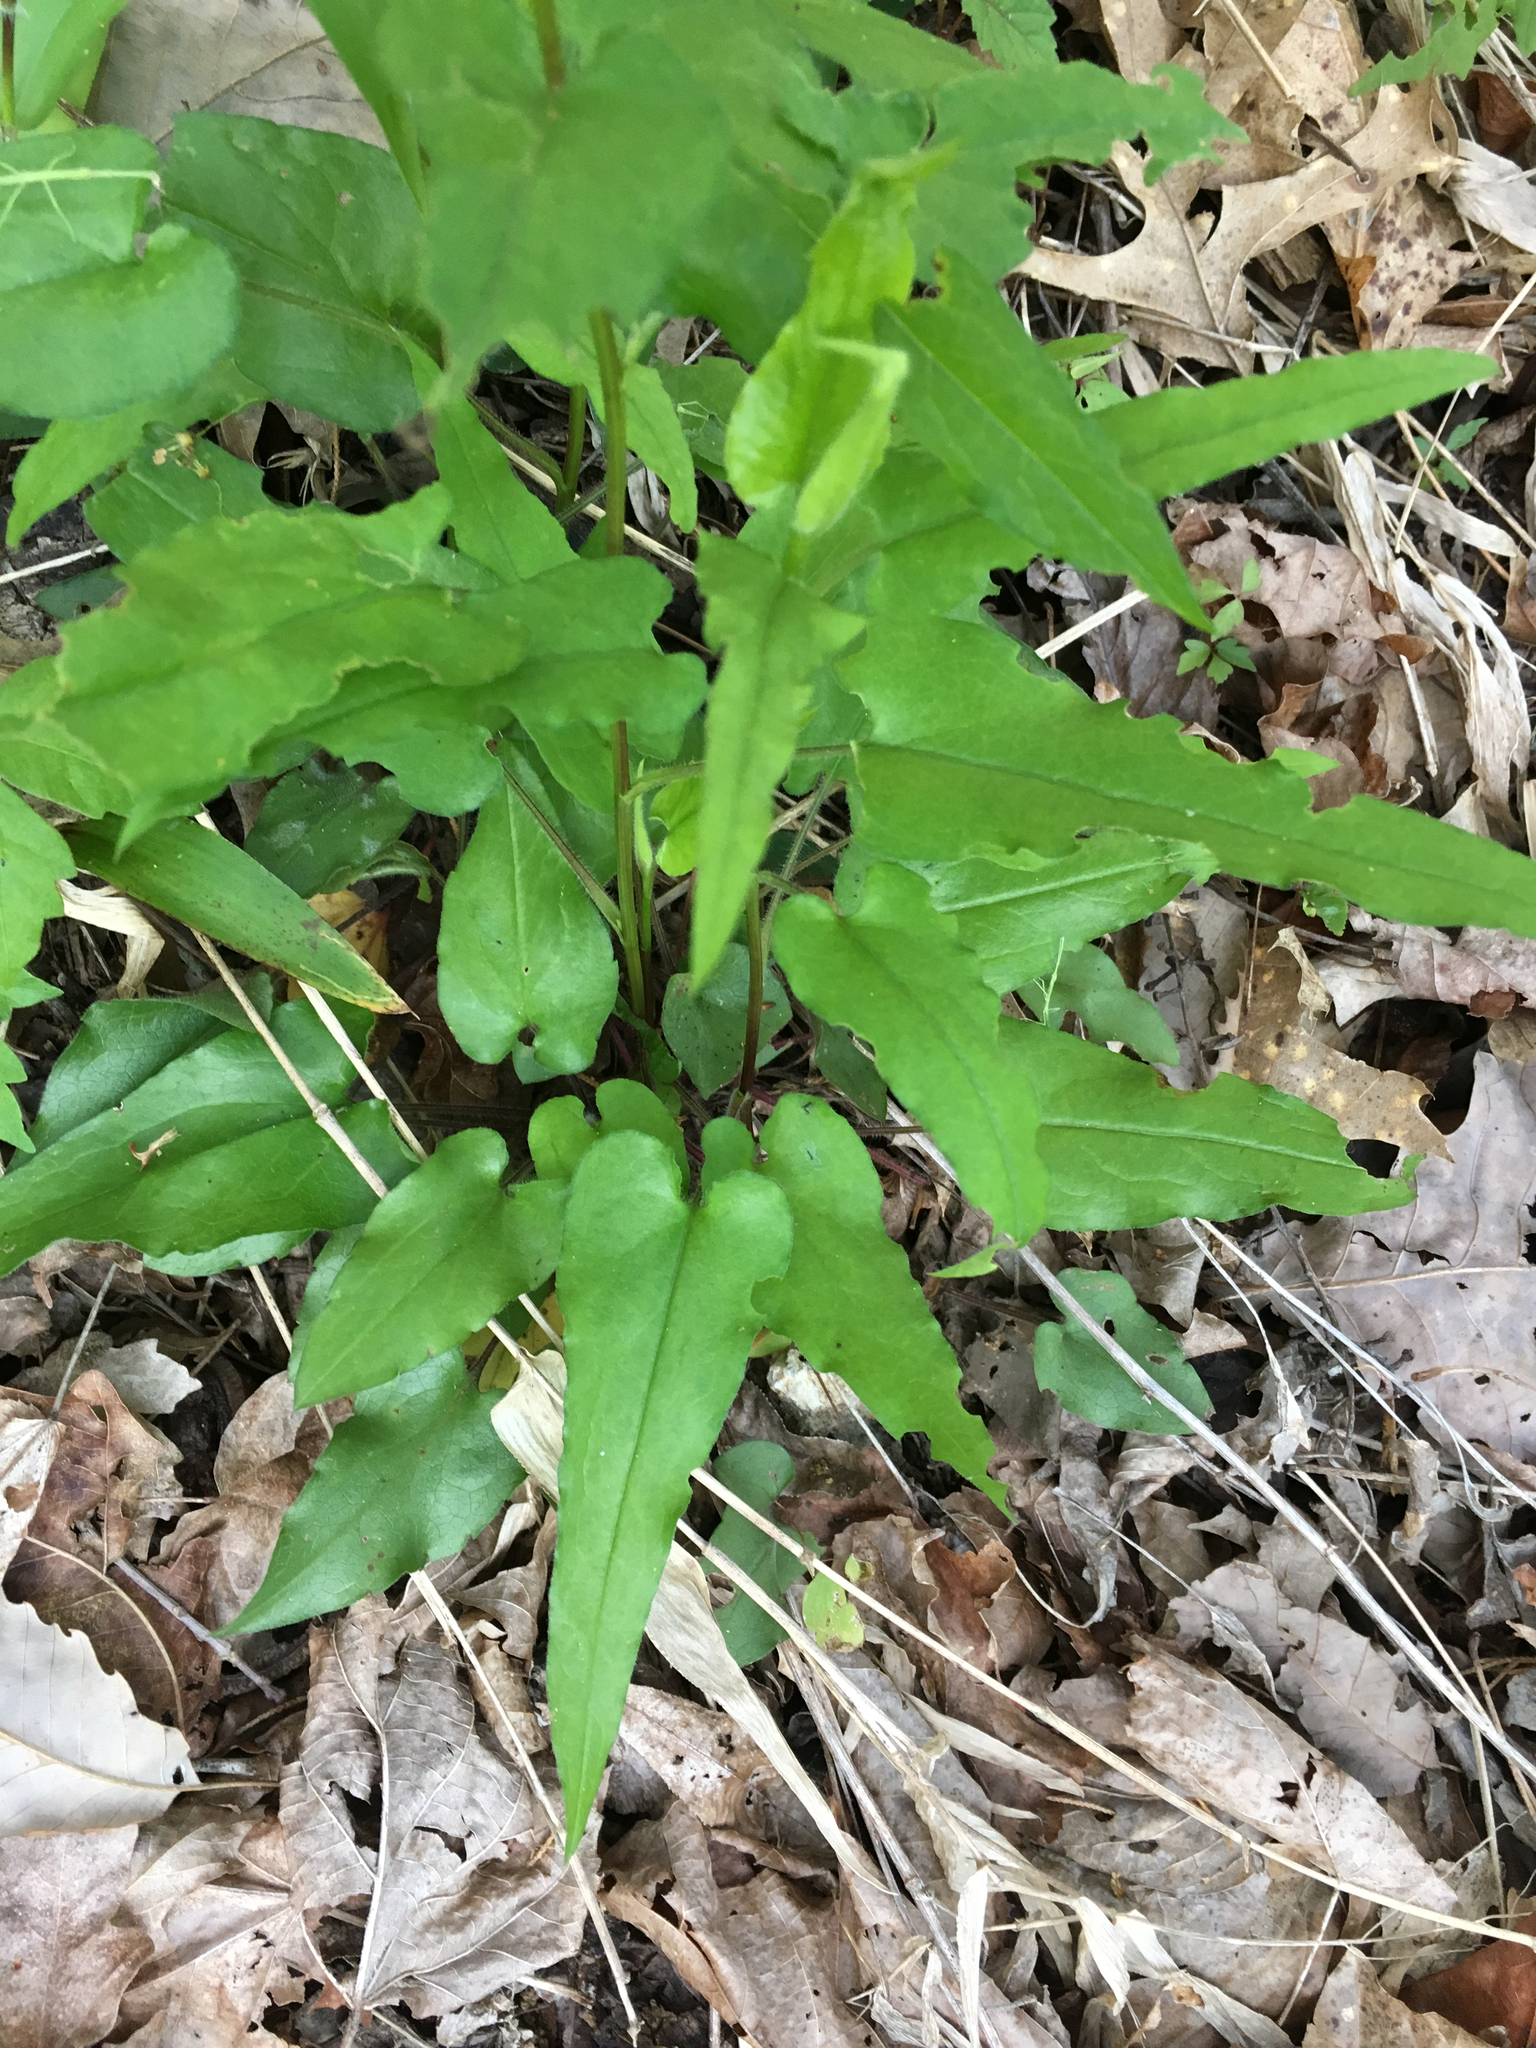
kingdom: Plantae
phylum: Tracheophyta
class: Magnoliopsida
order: Asterales
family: Asteraceae
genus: Symphyotrichum
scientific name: Symphyotrichum shortii
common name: Short's aster
